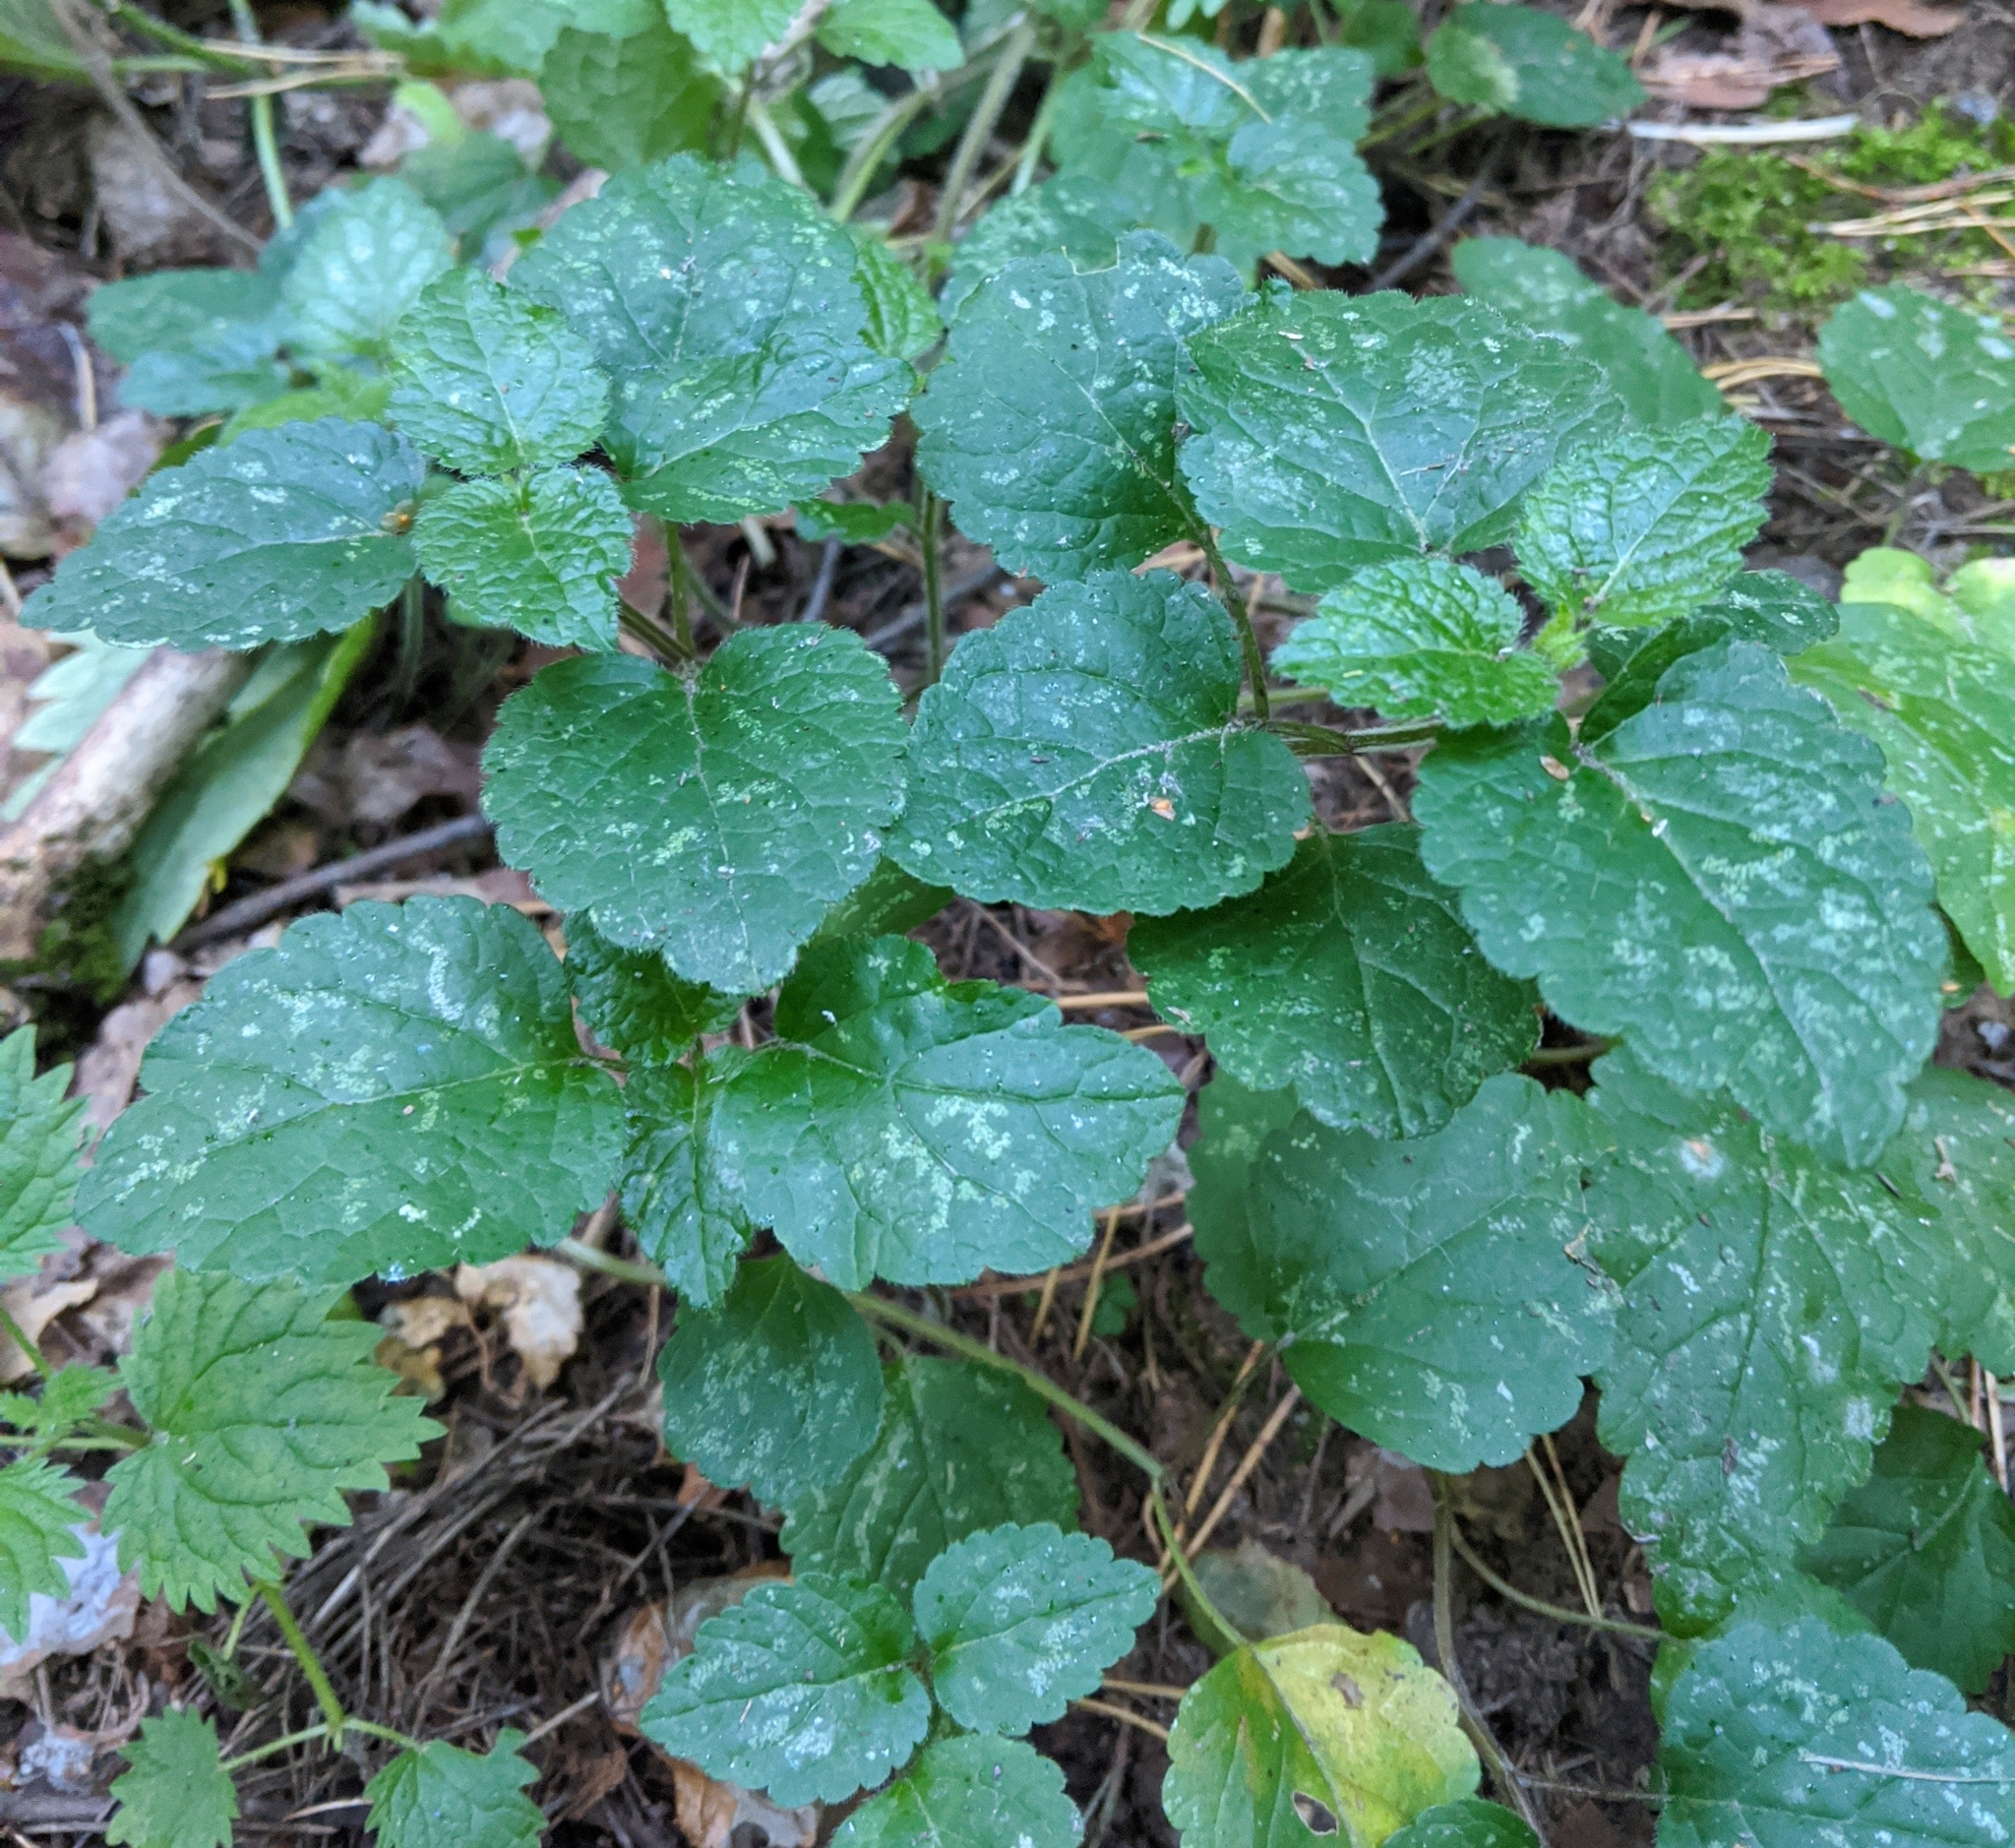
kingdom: Plantae
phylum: Tracheophyta
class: Magnoliopsida
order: Lamiales
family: Lamiaceae
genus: Lamium
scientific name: Lamium galeobdolon
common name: Yellow archangel
